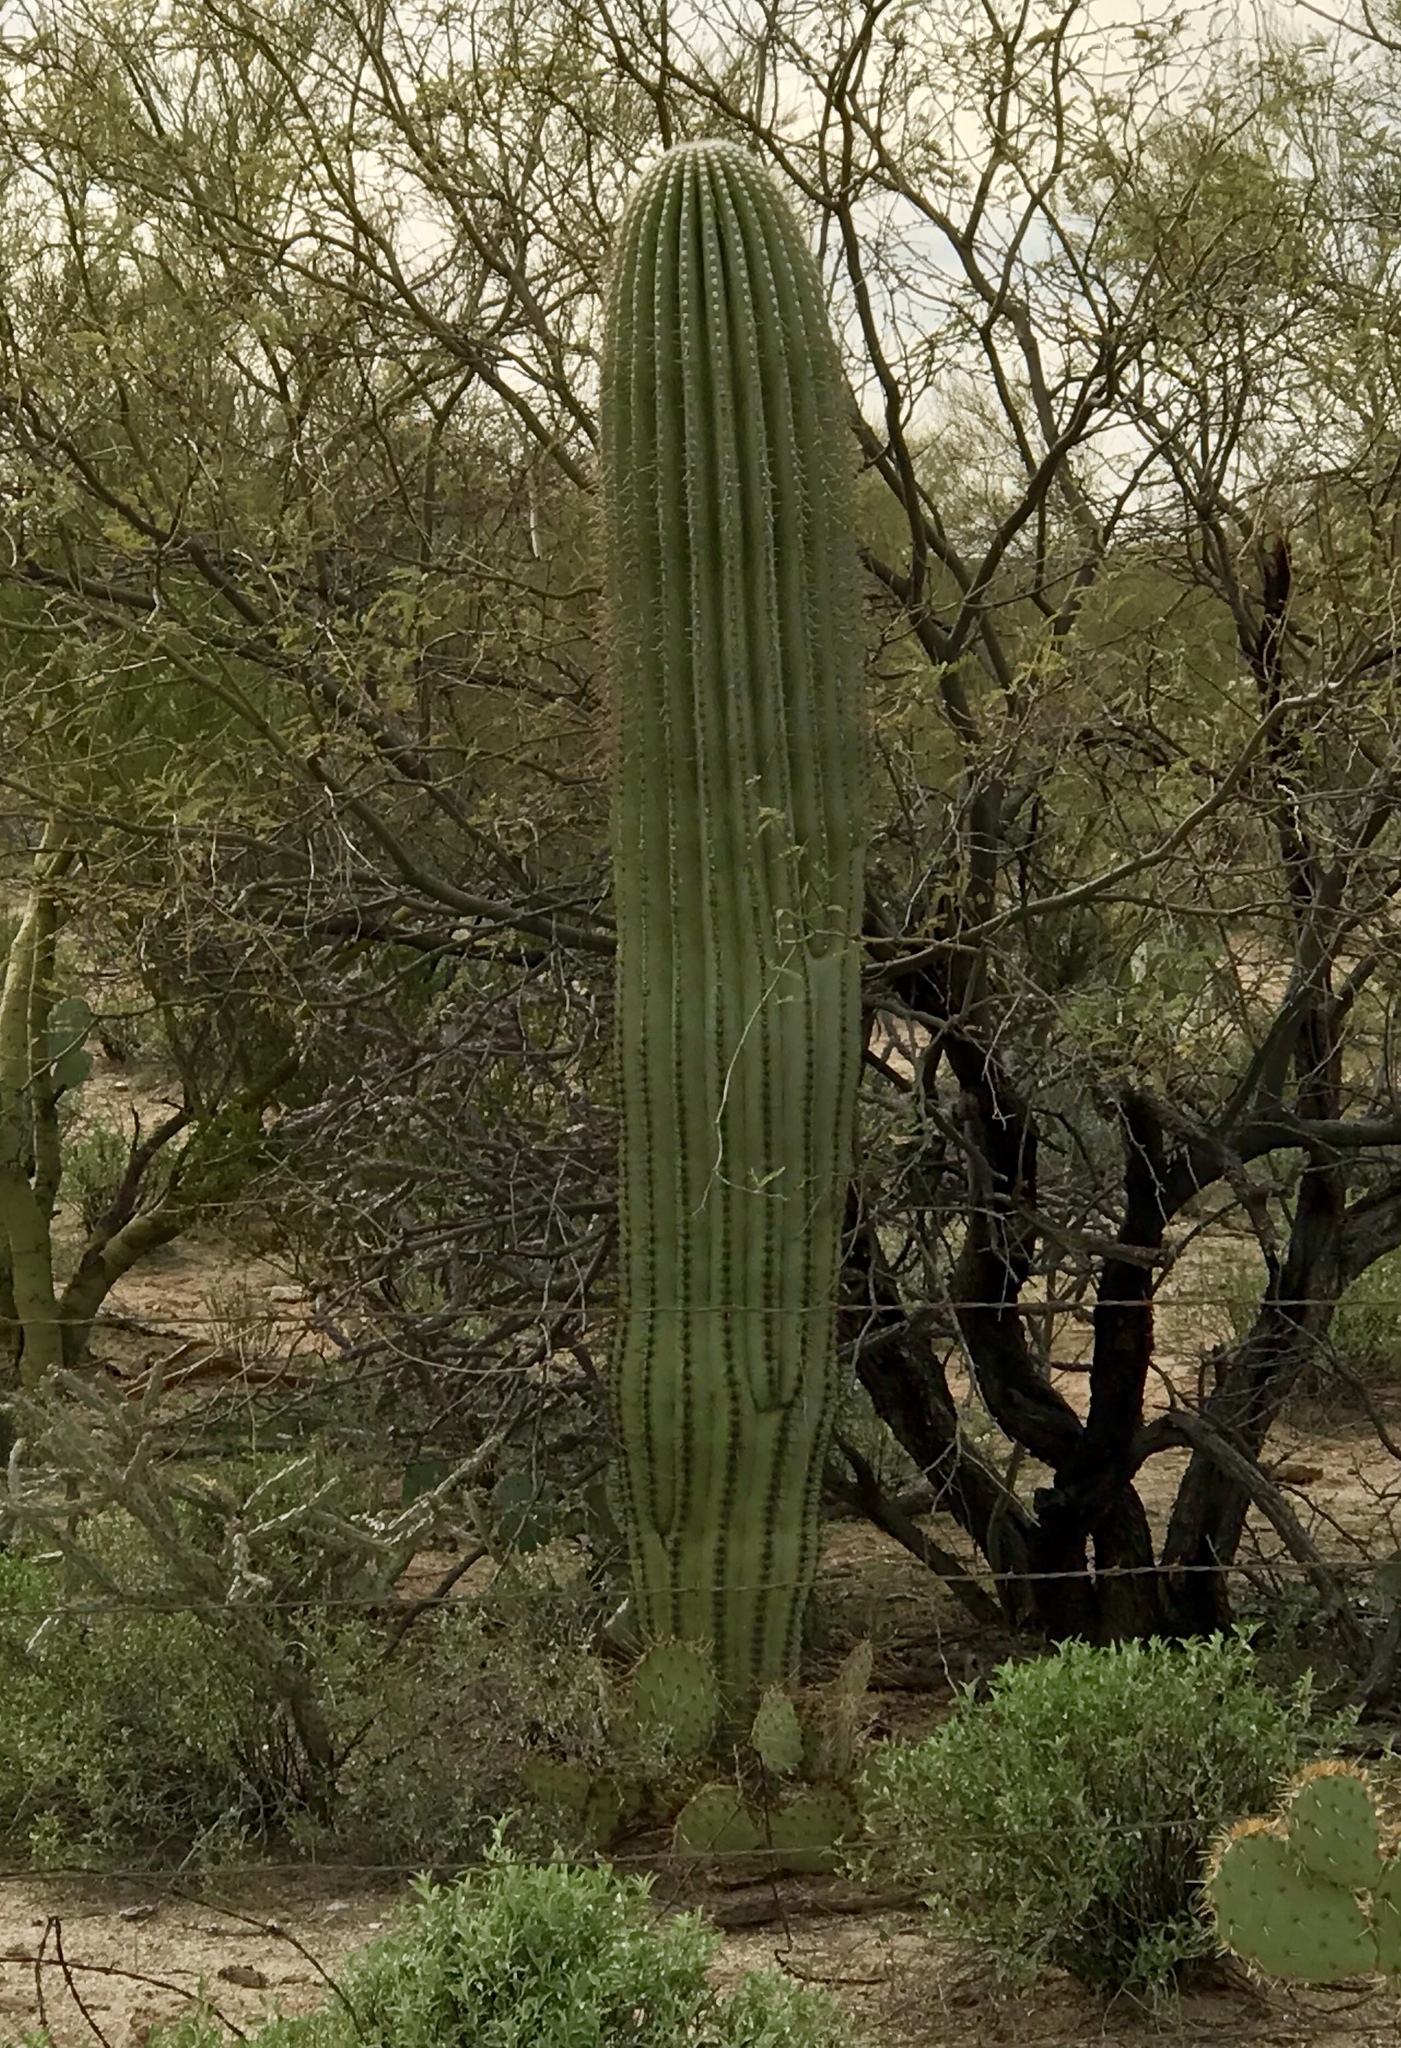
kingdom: Plantae
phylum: Tracheophyta
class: Magnoliopsida
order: Caryophyllales
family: Cactaceae
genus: Carnegiea
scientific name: Carnegiea gigantea
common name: Saguaro
